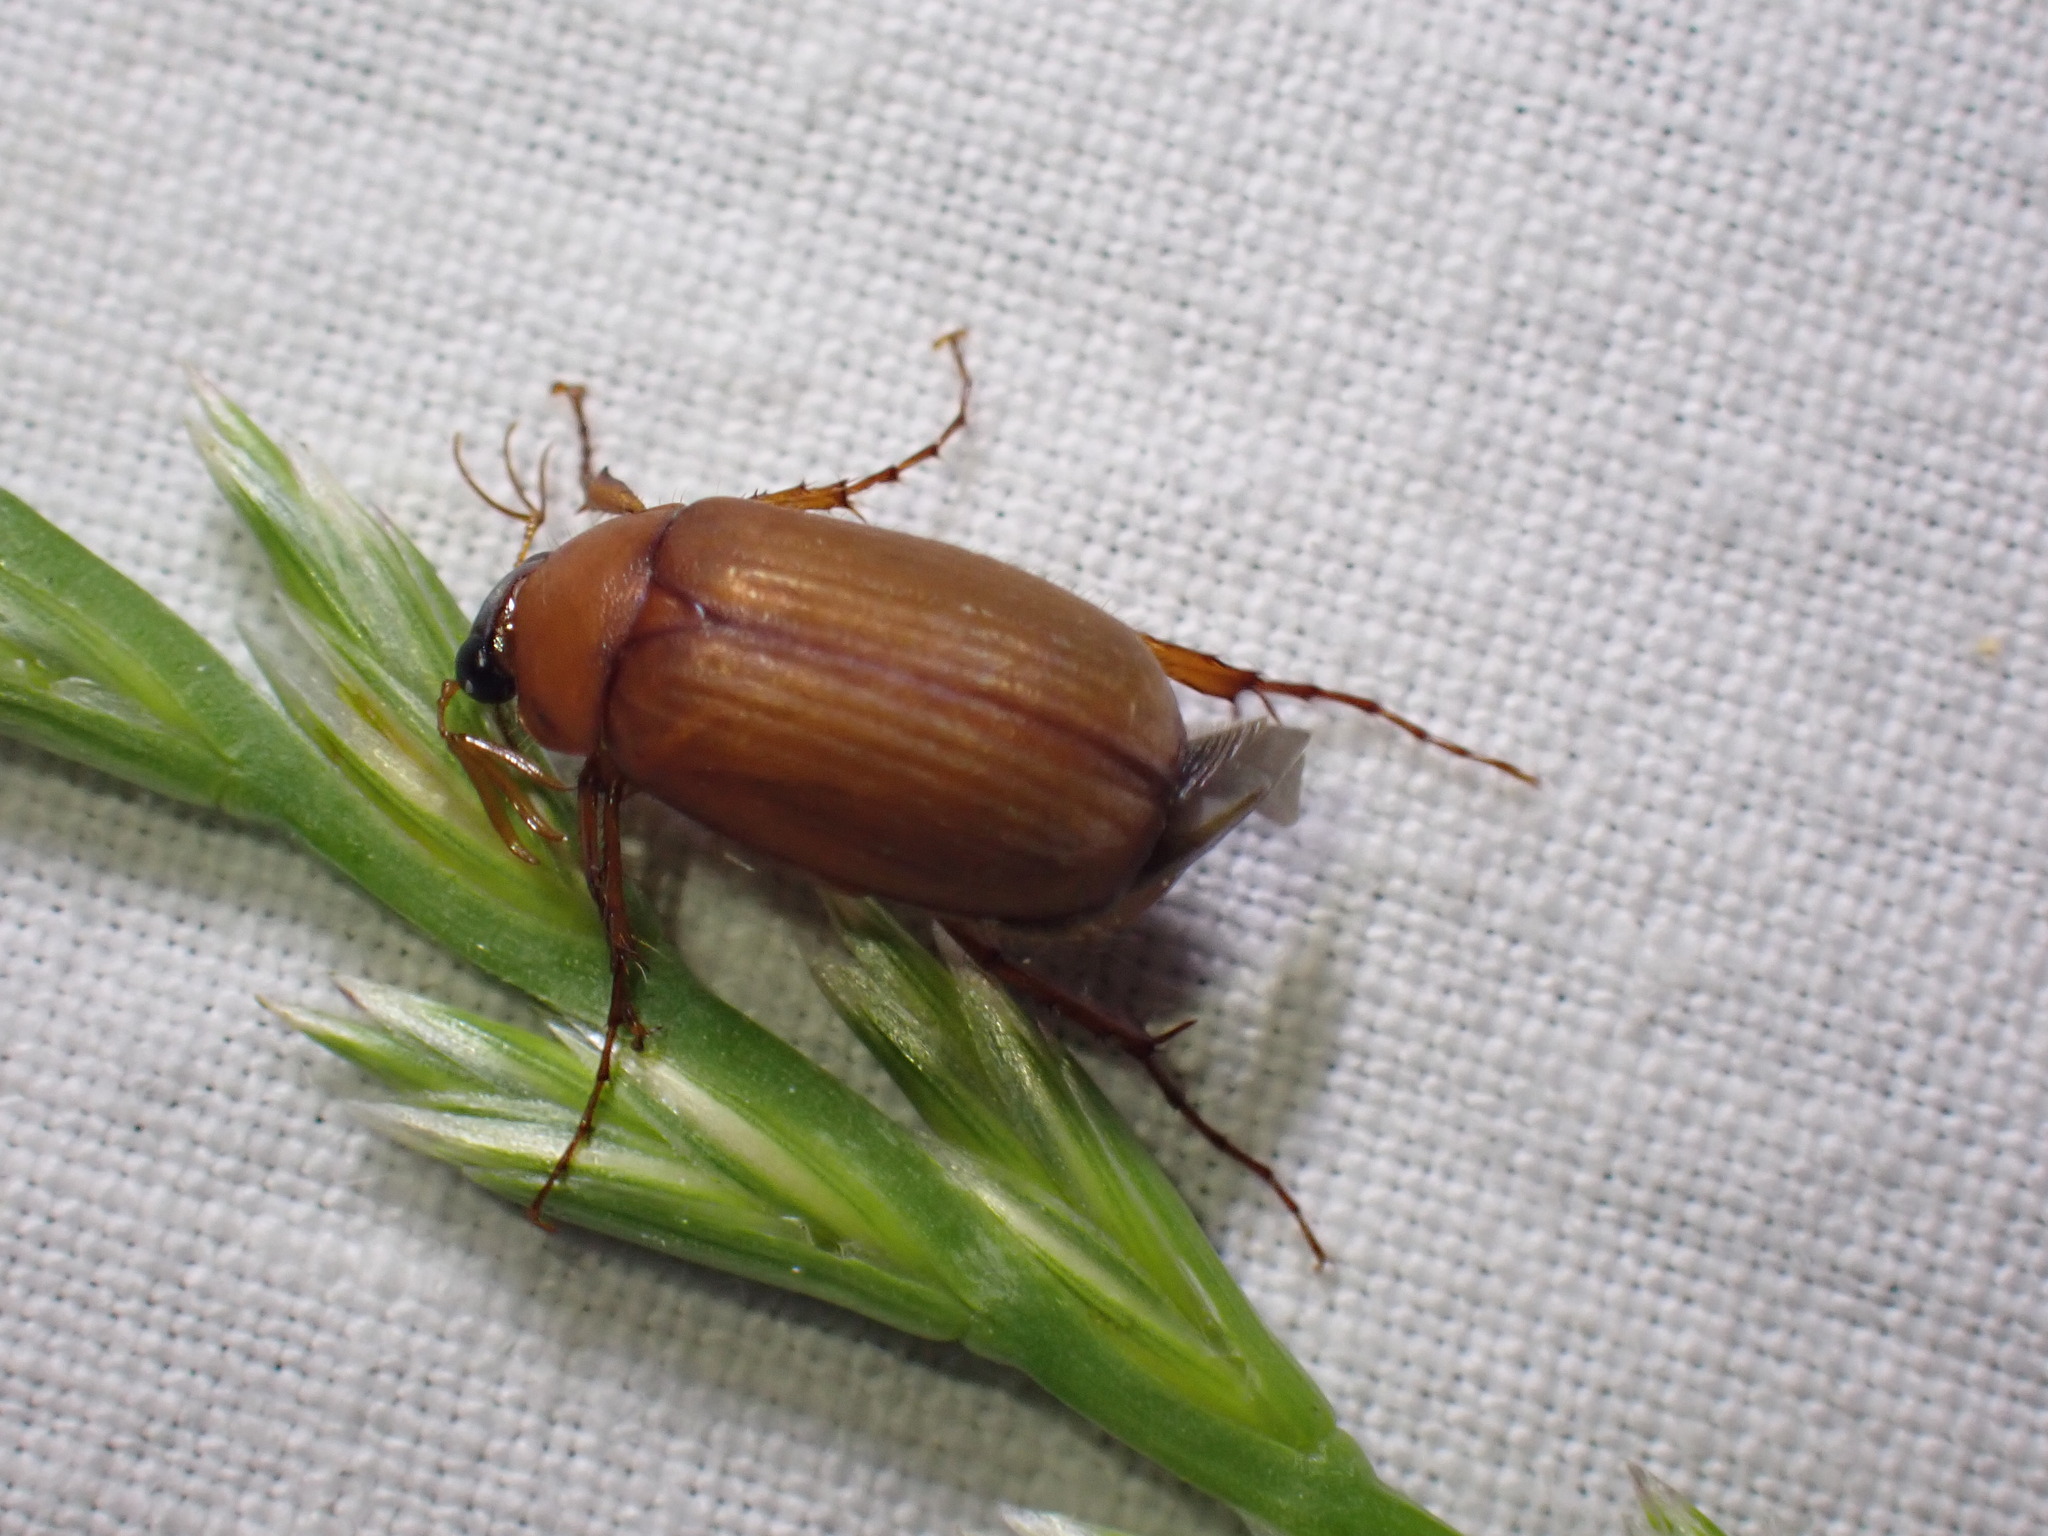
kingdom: Animalia
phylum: Arthropoda
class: Insecta
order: Coleoptera
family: Scarabaeidae
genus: Serica
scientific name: Serica brunnea
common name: Brown chafer
